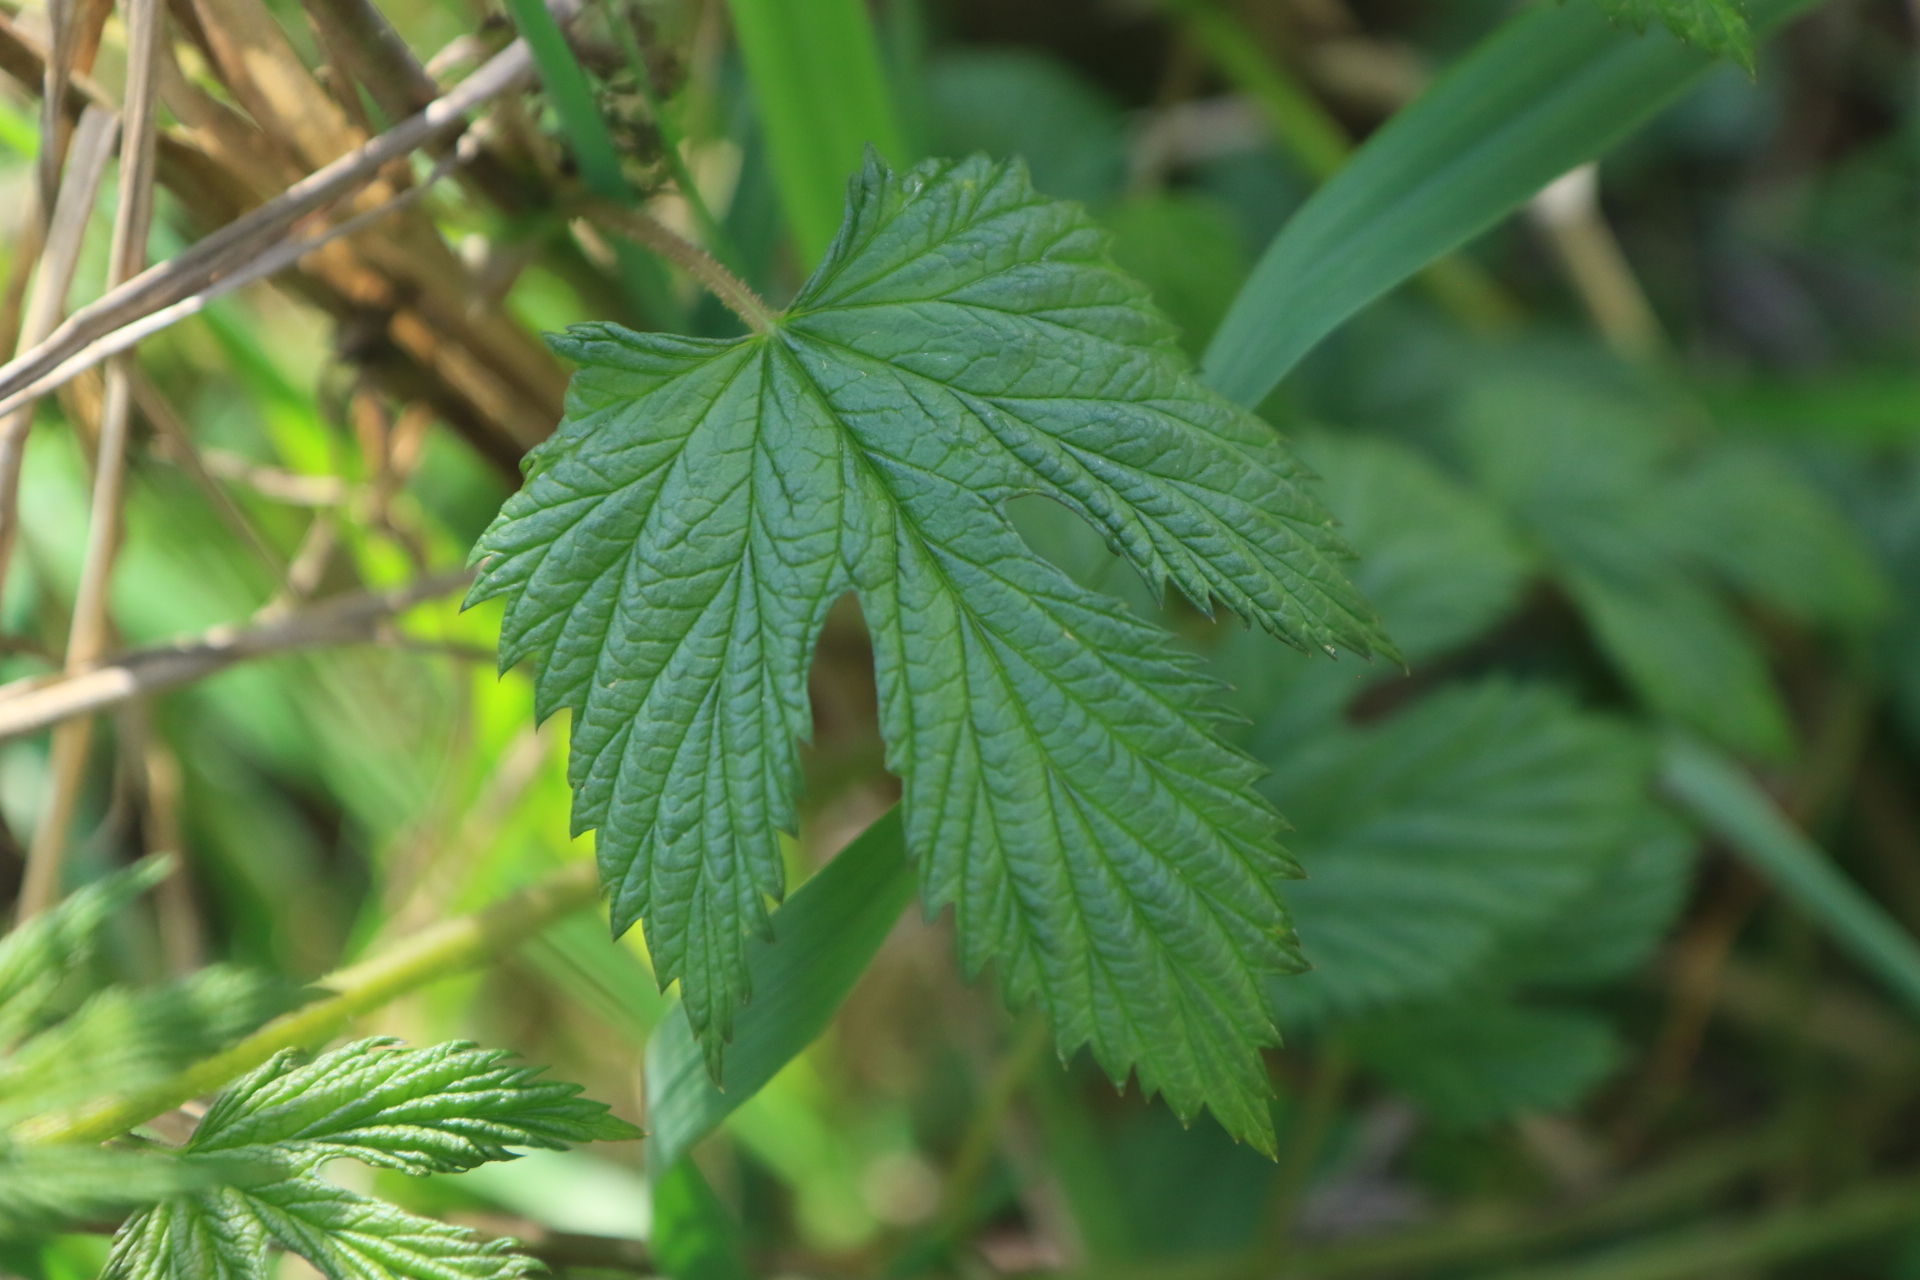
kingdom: Plantae
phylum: Tracheophyta
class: Magnoliopsida
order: Rosales
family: Cannabaceae
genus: Humulus
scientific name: Humulus lupulus
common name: Hop
